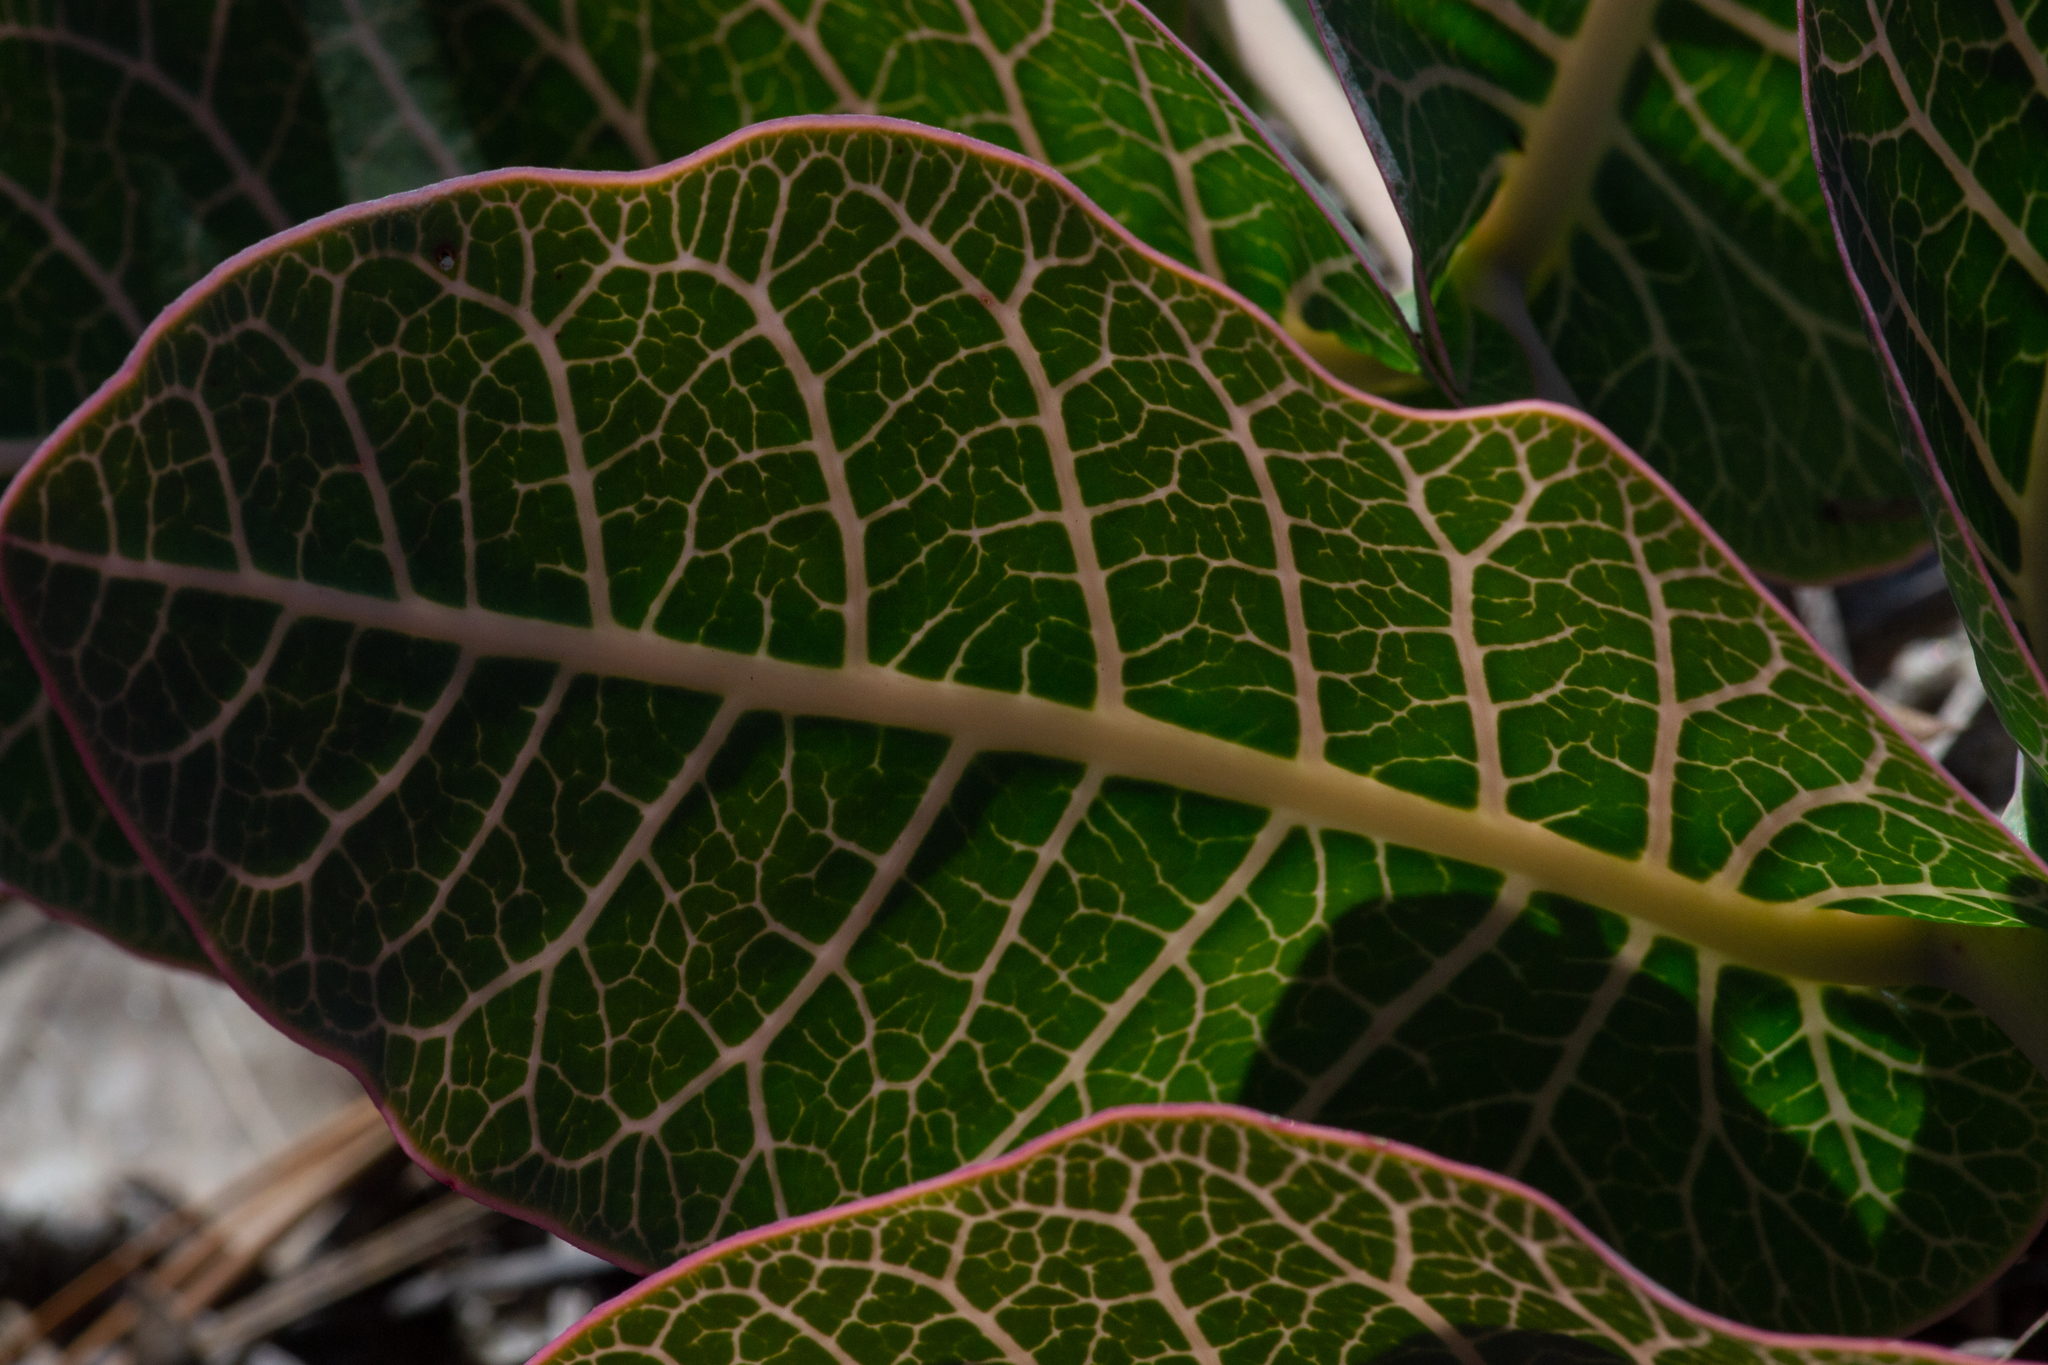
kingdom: Plantae
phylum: Tracheophyta
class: Magnoliopsida
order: Gentianales
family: Apocynaceae
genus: Asclepias
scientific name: Asclepias humistrata
